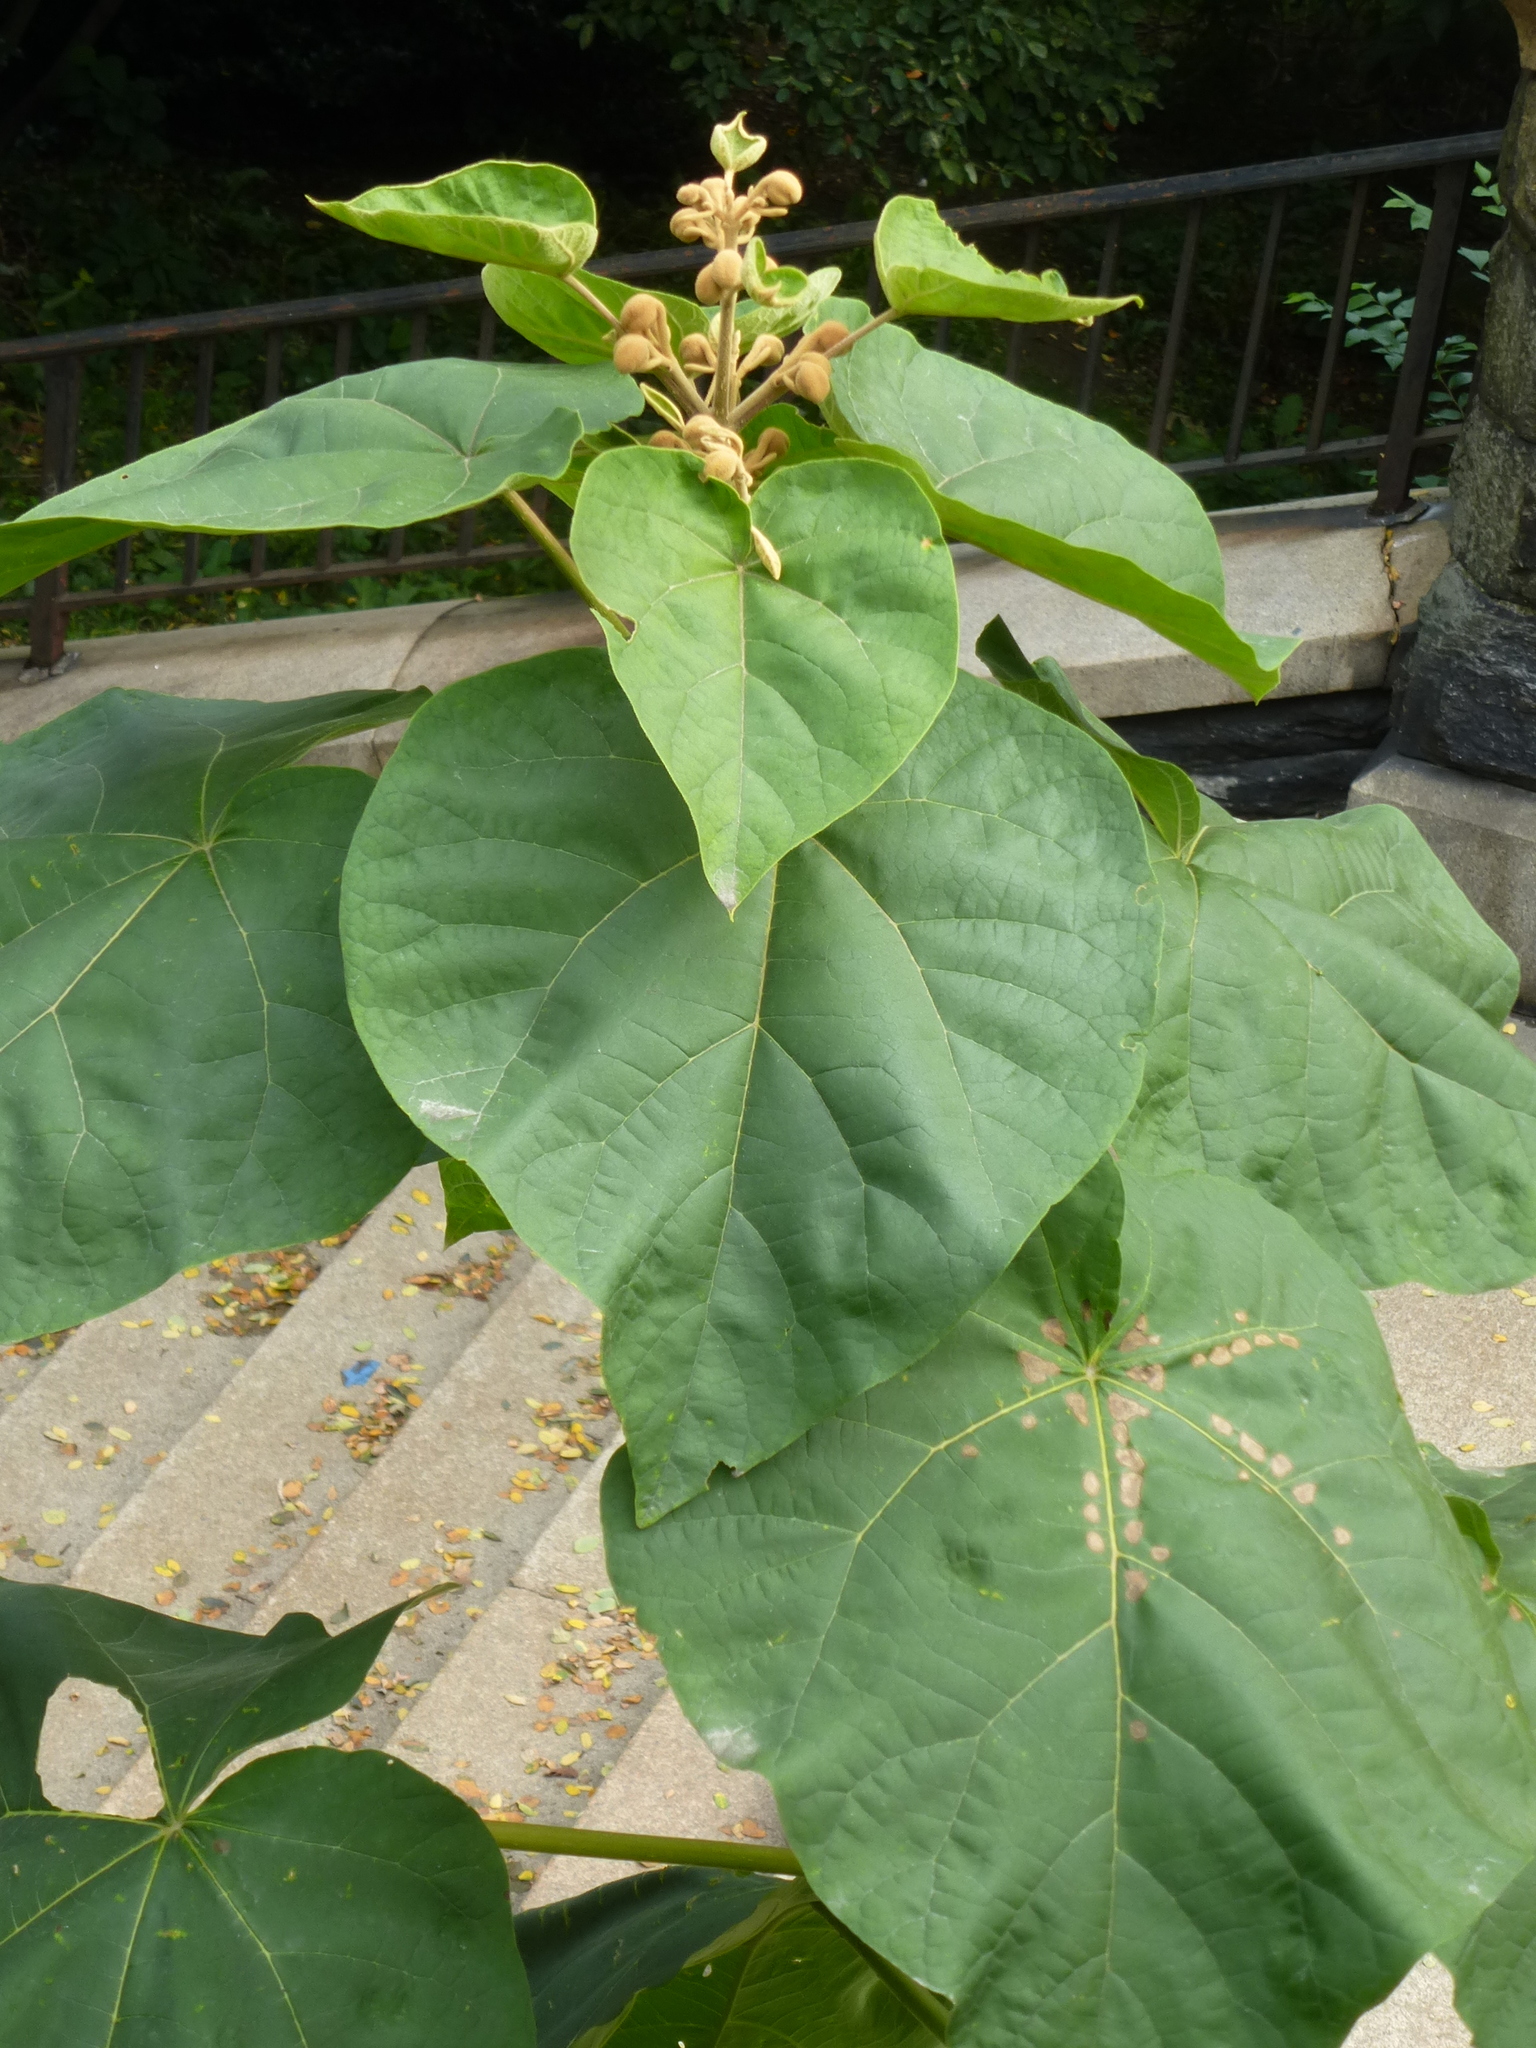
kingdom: Plantae
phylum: Tracheophyta
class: Magnoliopsida
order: Lamiales
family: Paulowniaceae
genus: Paulownia
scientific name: Paulownia tomentosa
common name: Foxglove-tree
